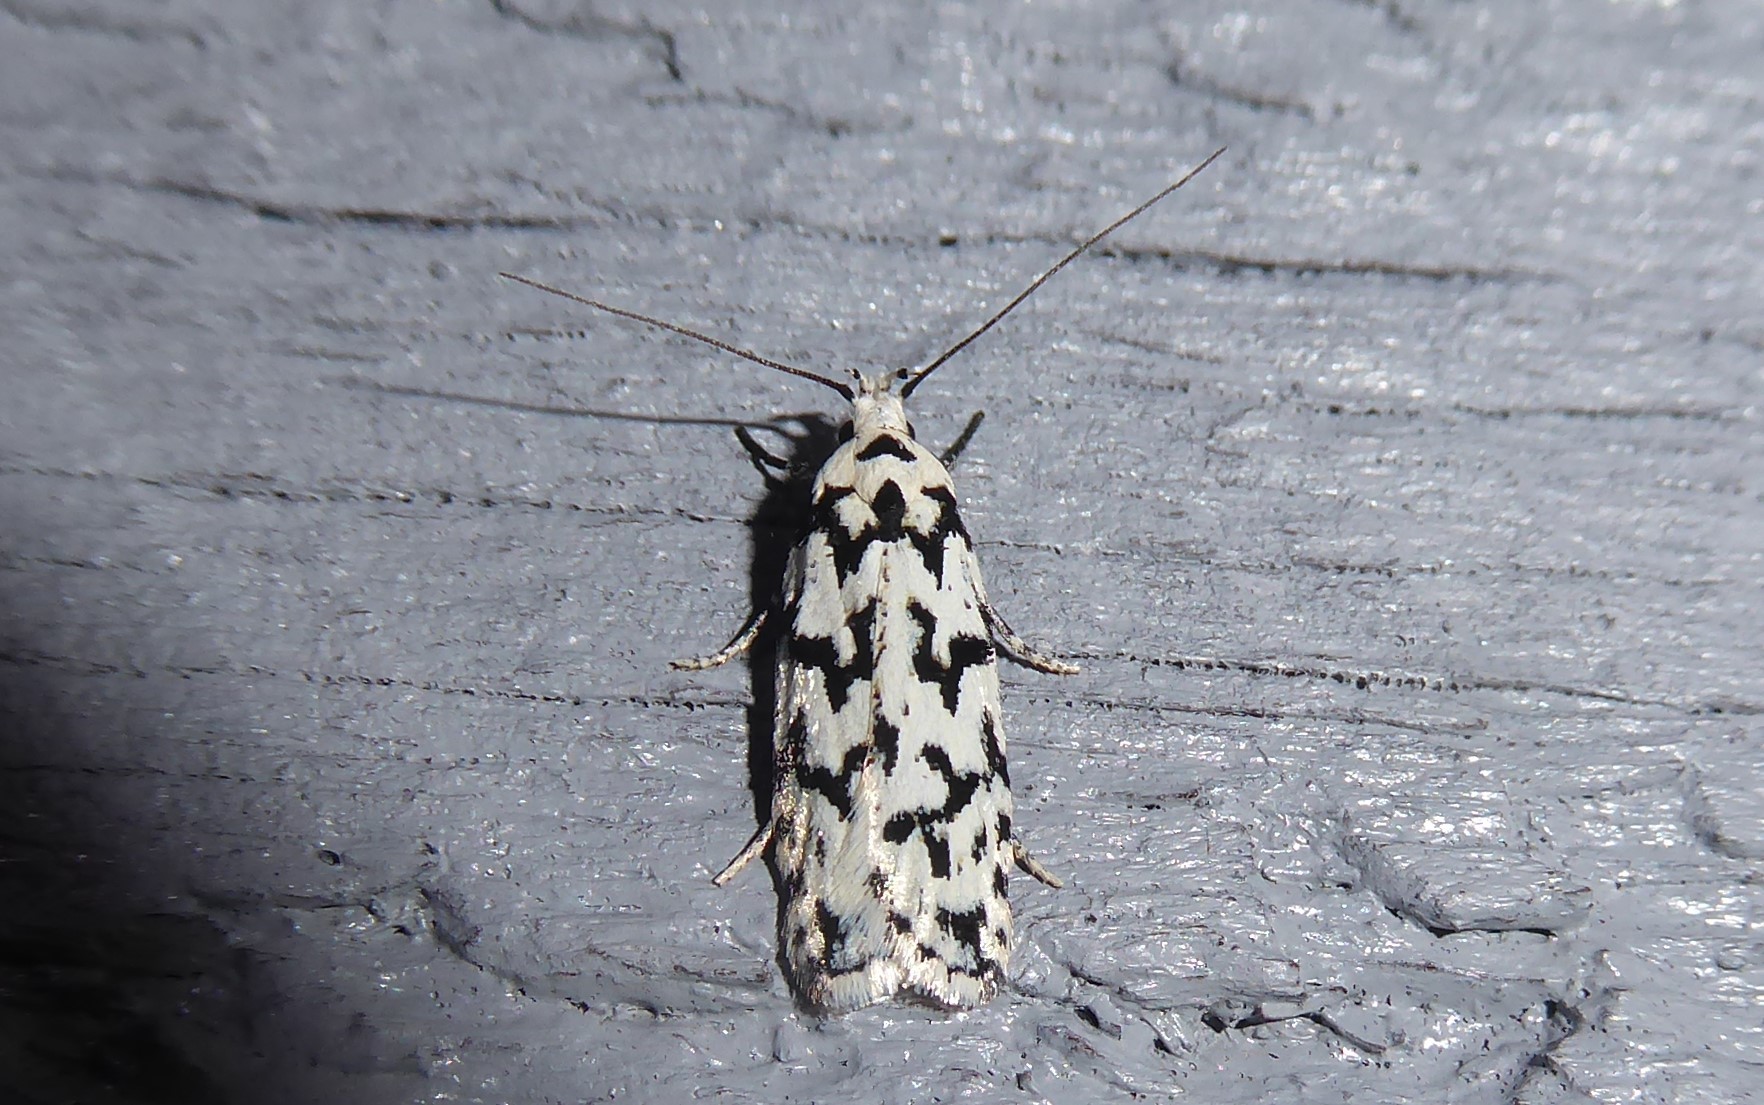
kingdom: Animalia
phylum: Arthropoda
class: Insecta
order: Lepidoptera
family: Oecophoridae
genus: Izatha
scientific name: Izatha katadiktya
